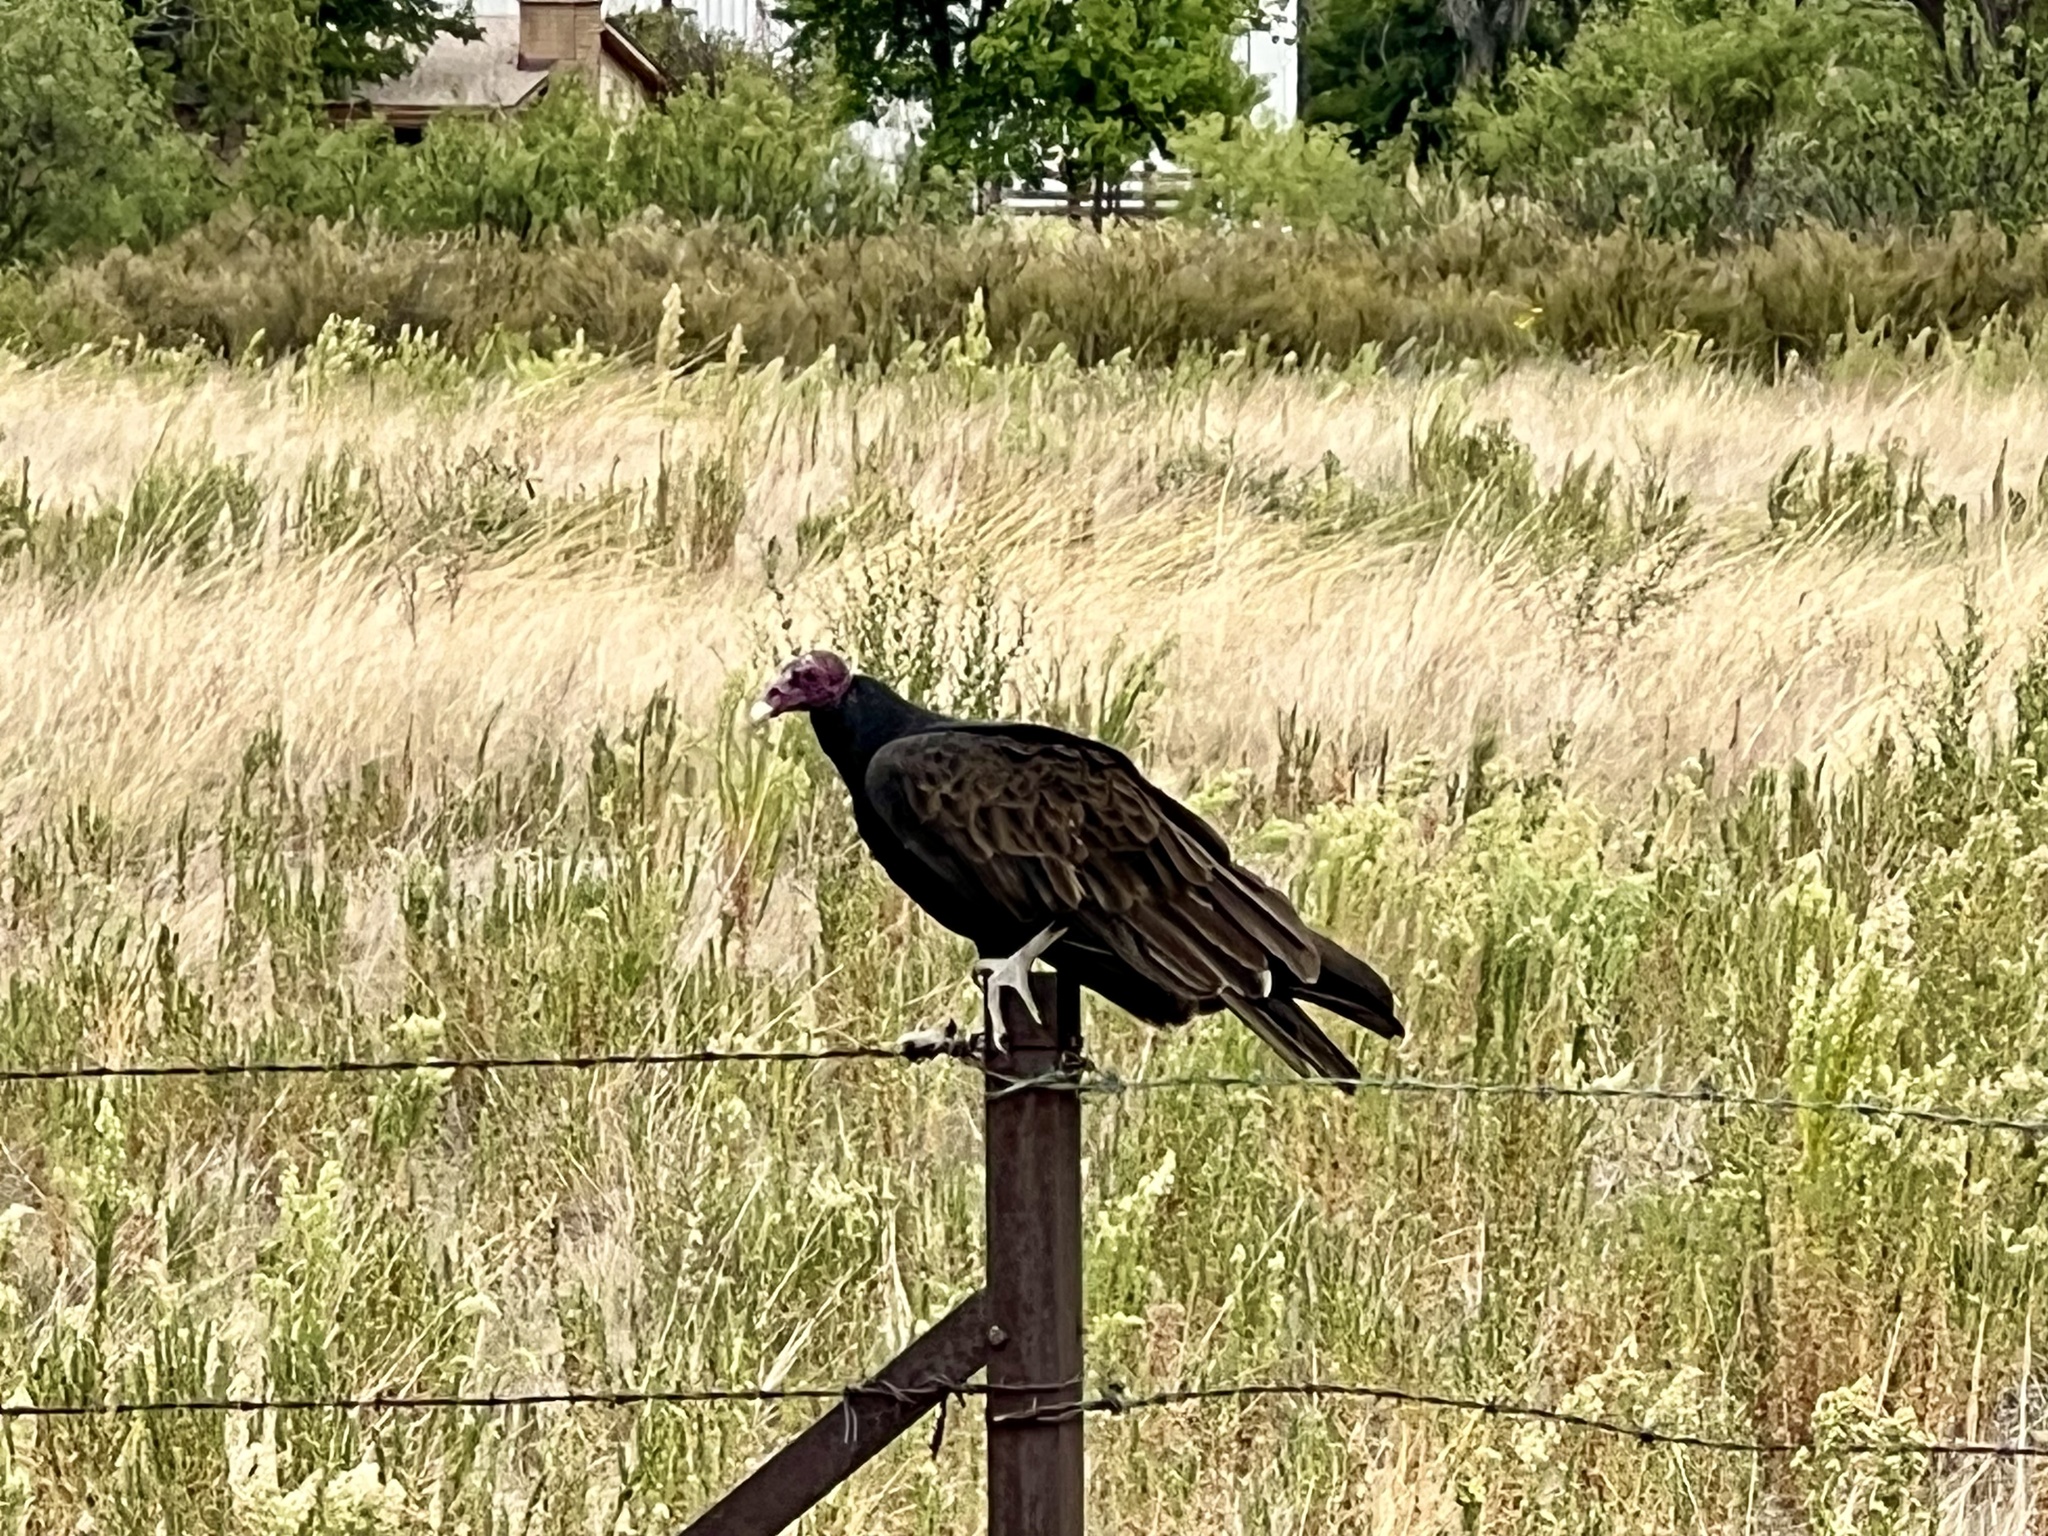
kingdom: Animalia
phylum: Chordata
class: Aves
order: Accipitriformes
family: Cathartidae
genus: Cathartes
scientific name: Cathartes aura
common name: Turkey vulture
